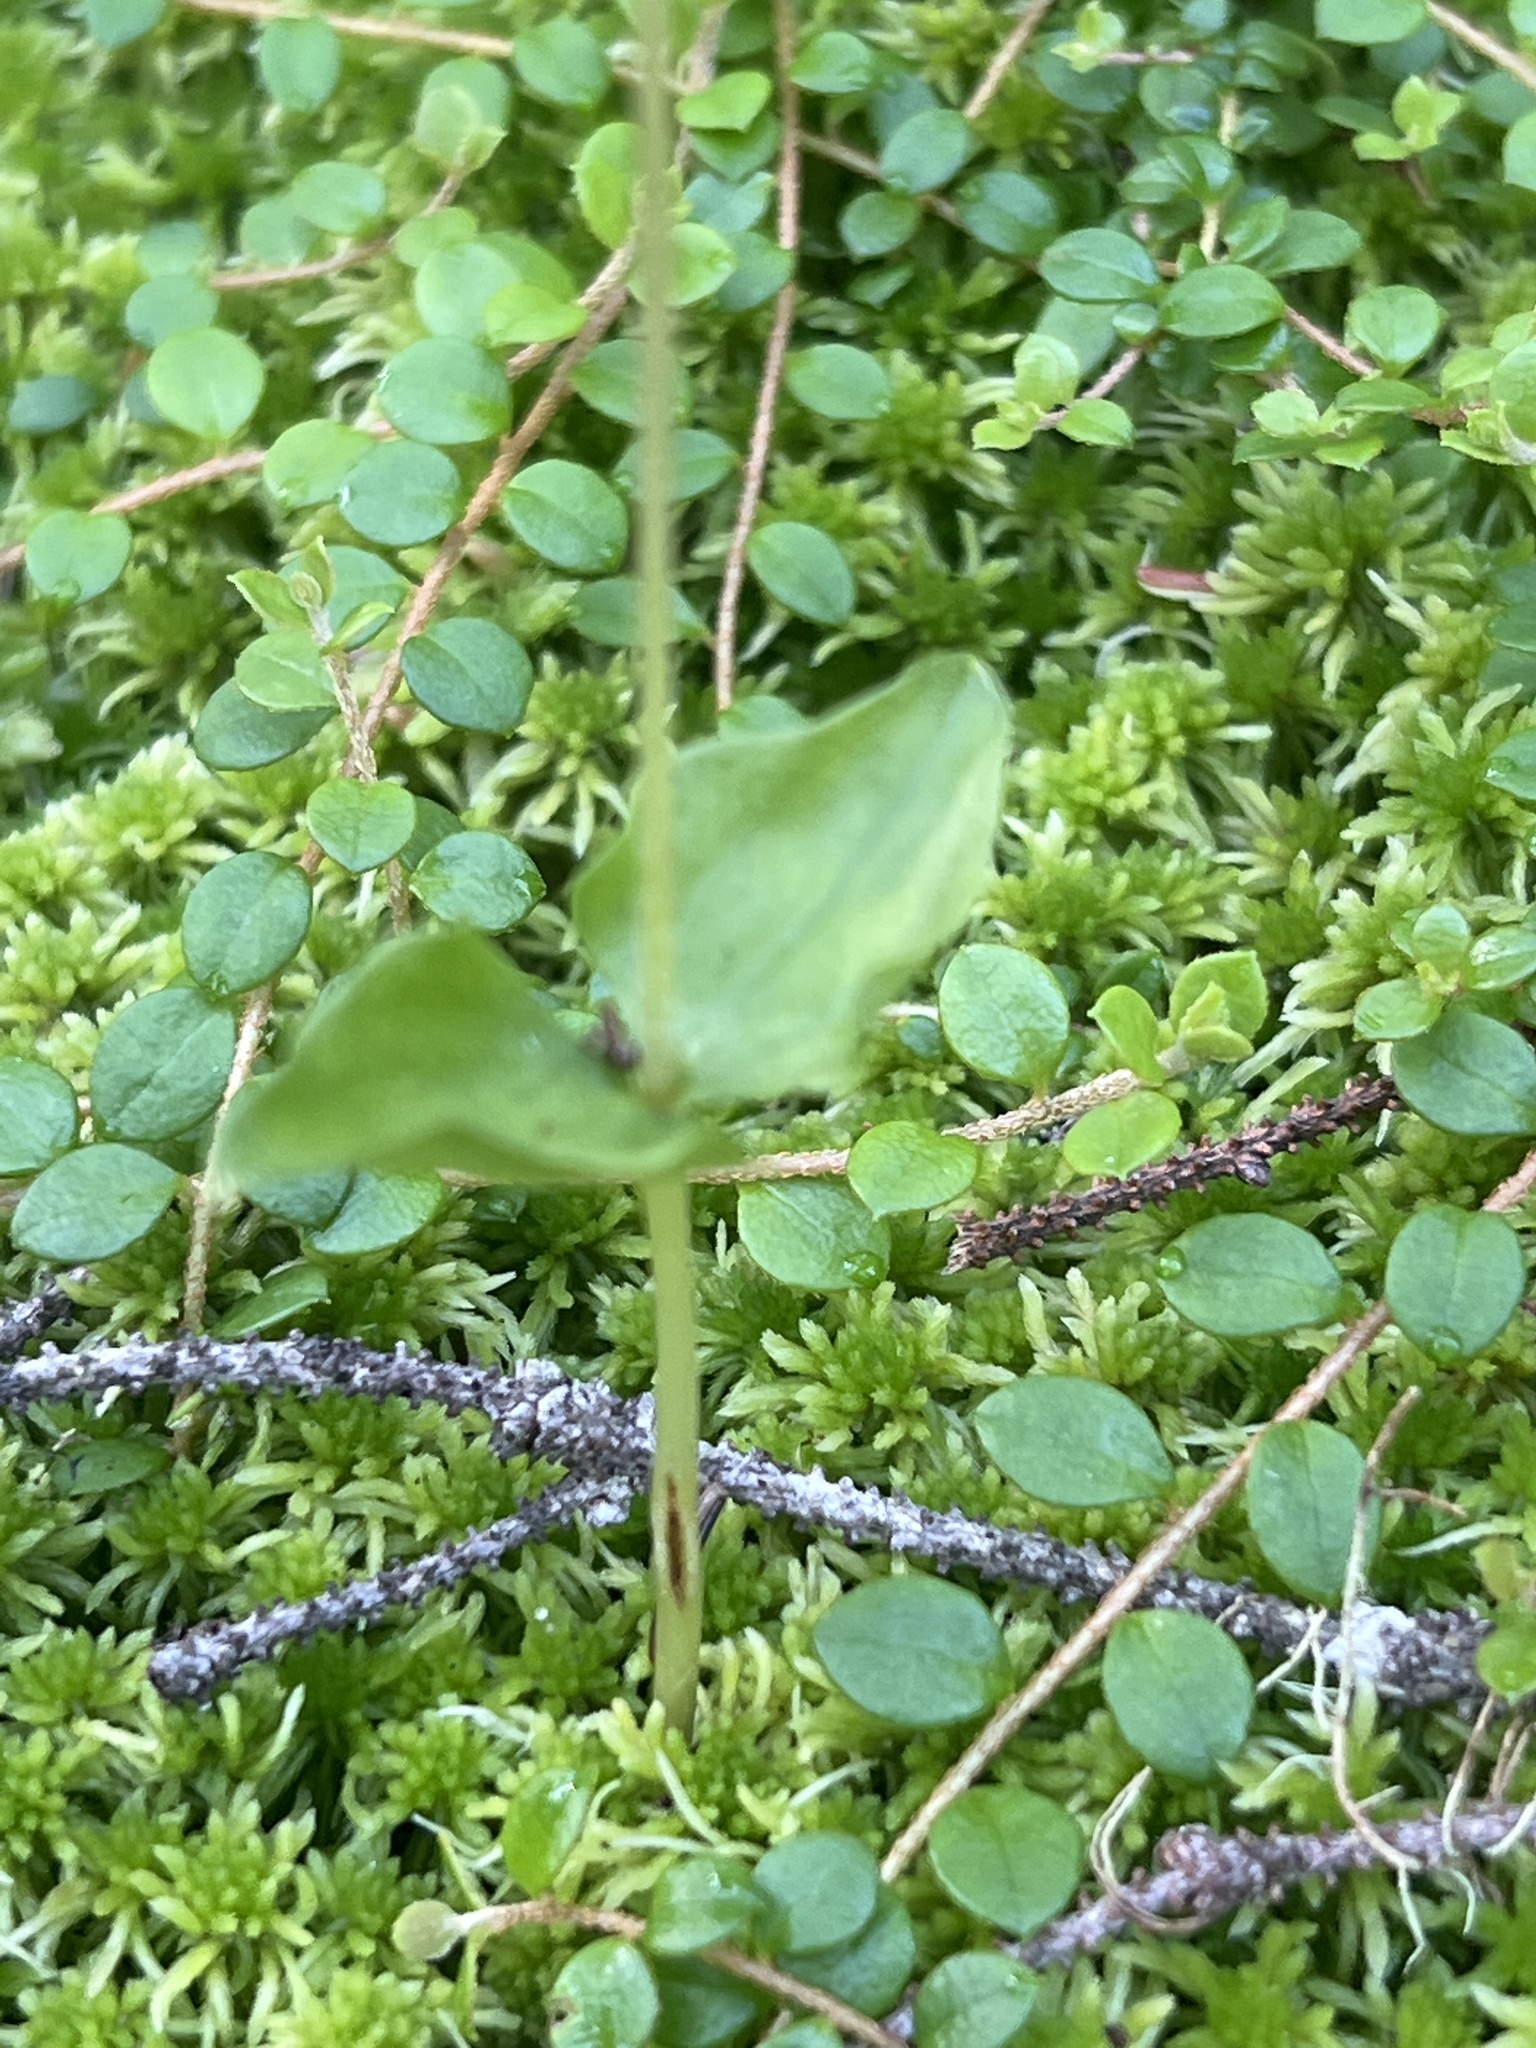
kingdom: Plantae
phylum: Tracheophyta
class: Liliopsida
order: Asparagales
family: Orchidaceae
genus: Neottia
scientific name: Neottia cordata
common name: Lesser twayblade
